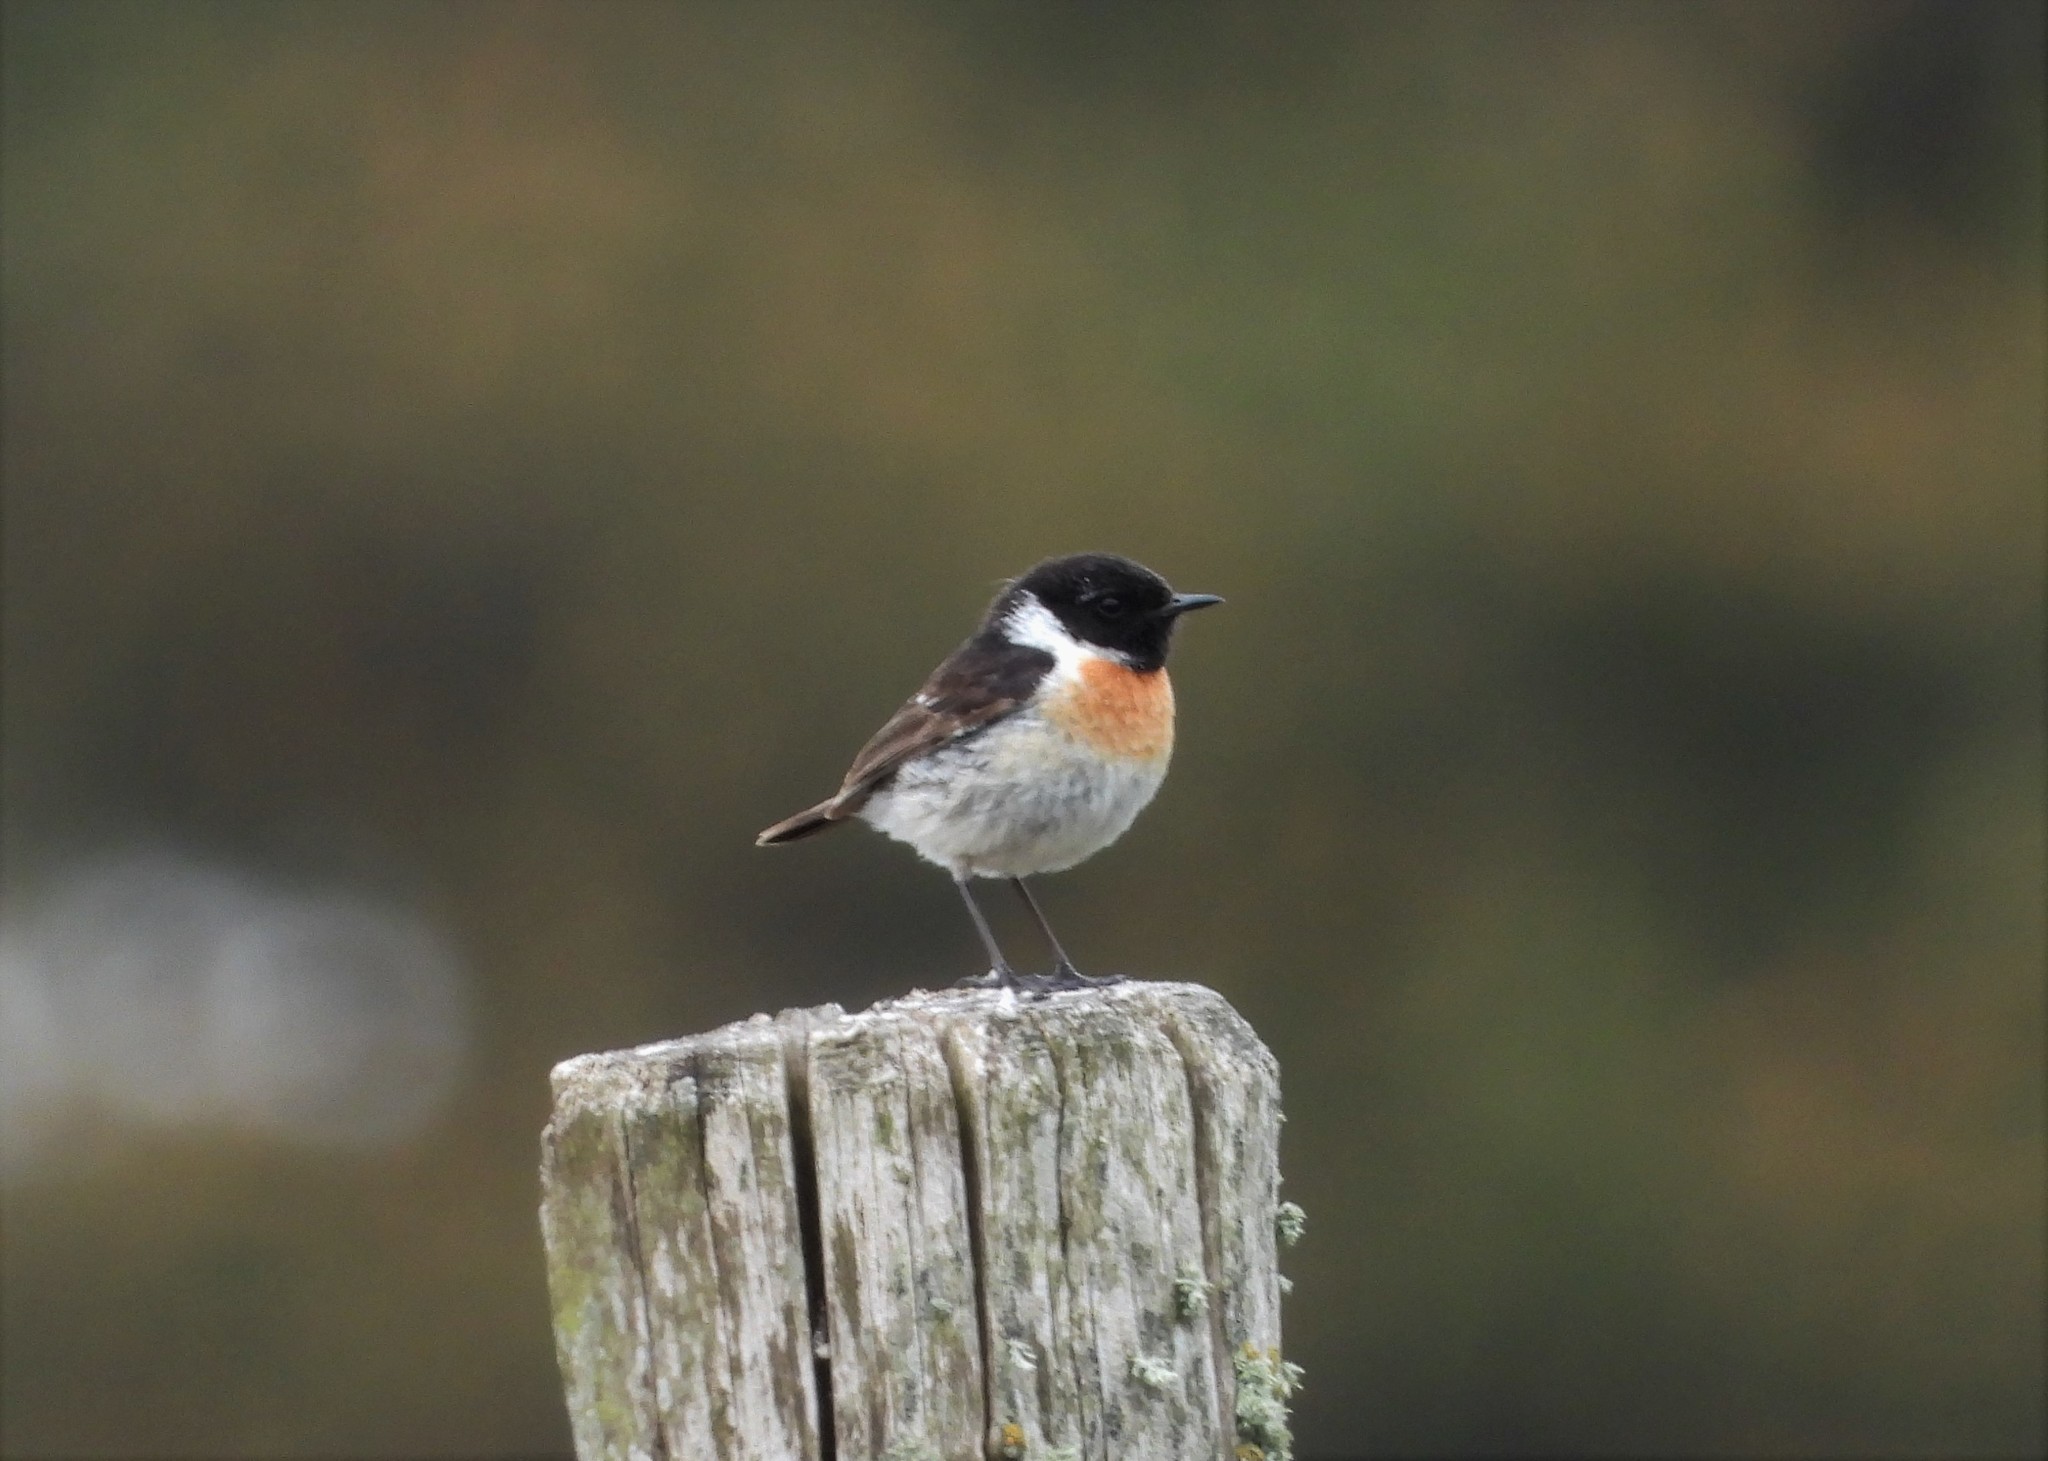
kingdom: Animalia
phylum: Chordata
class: Aves
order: Passeriformes
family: Muscicapidae
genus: Saxicola
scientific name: Saxicola rubicola
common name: European stonechat
